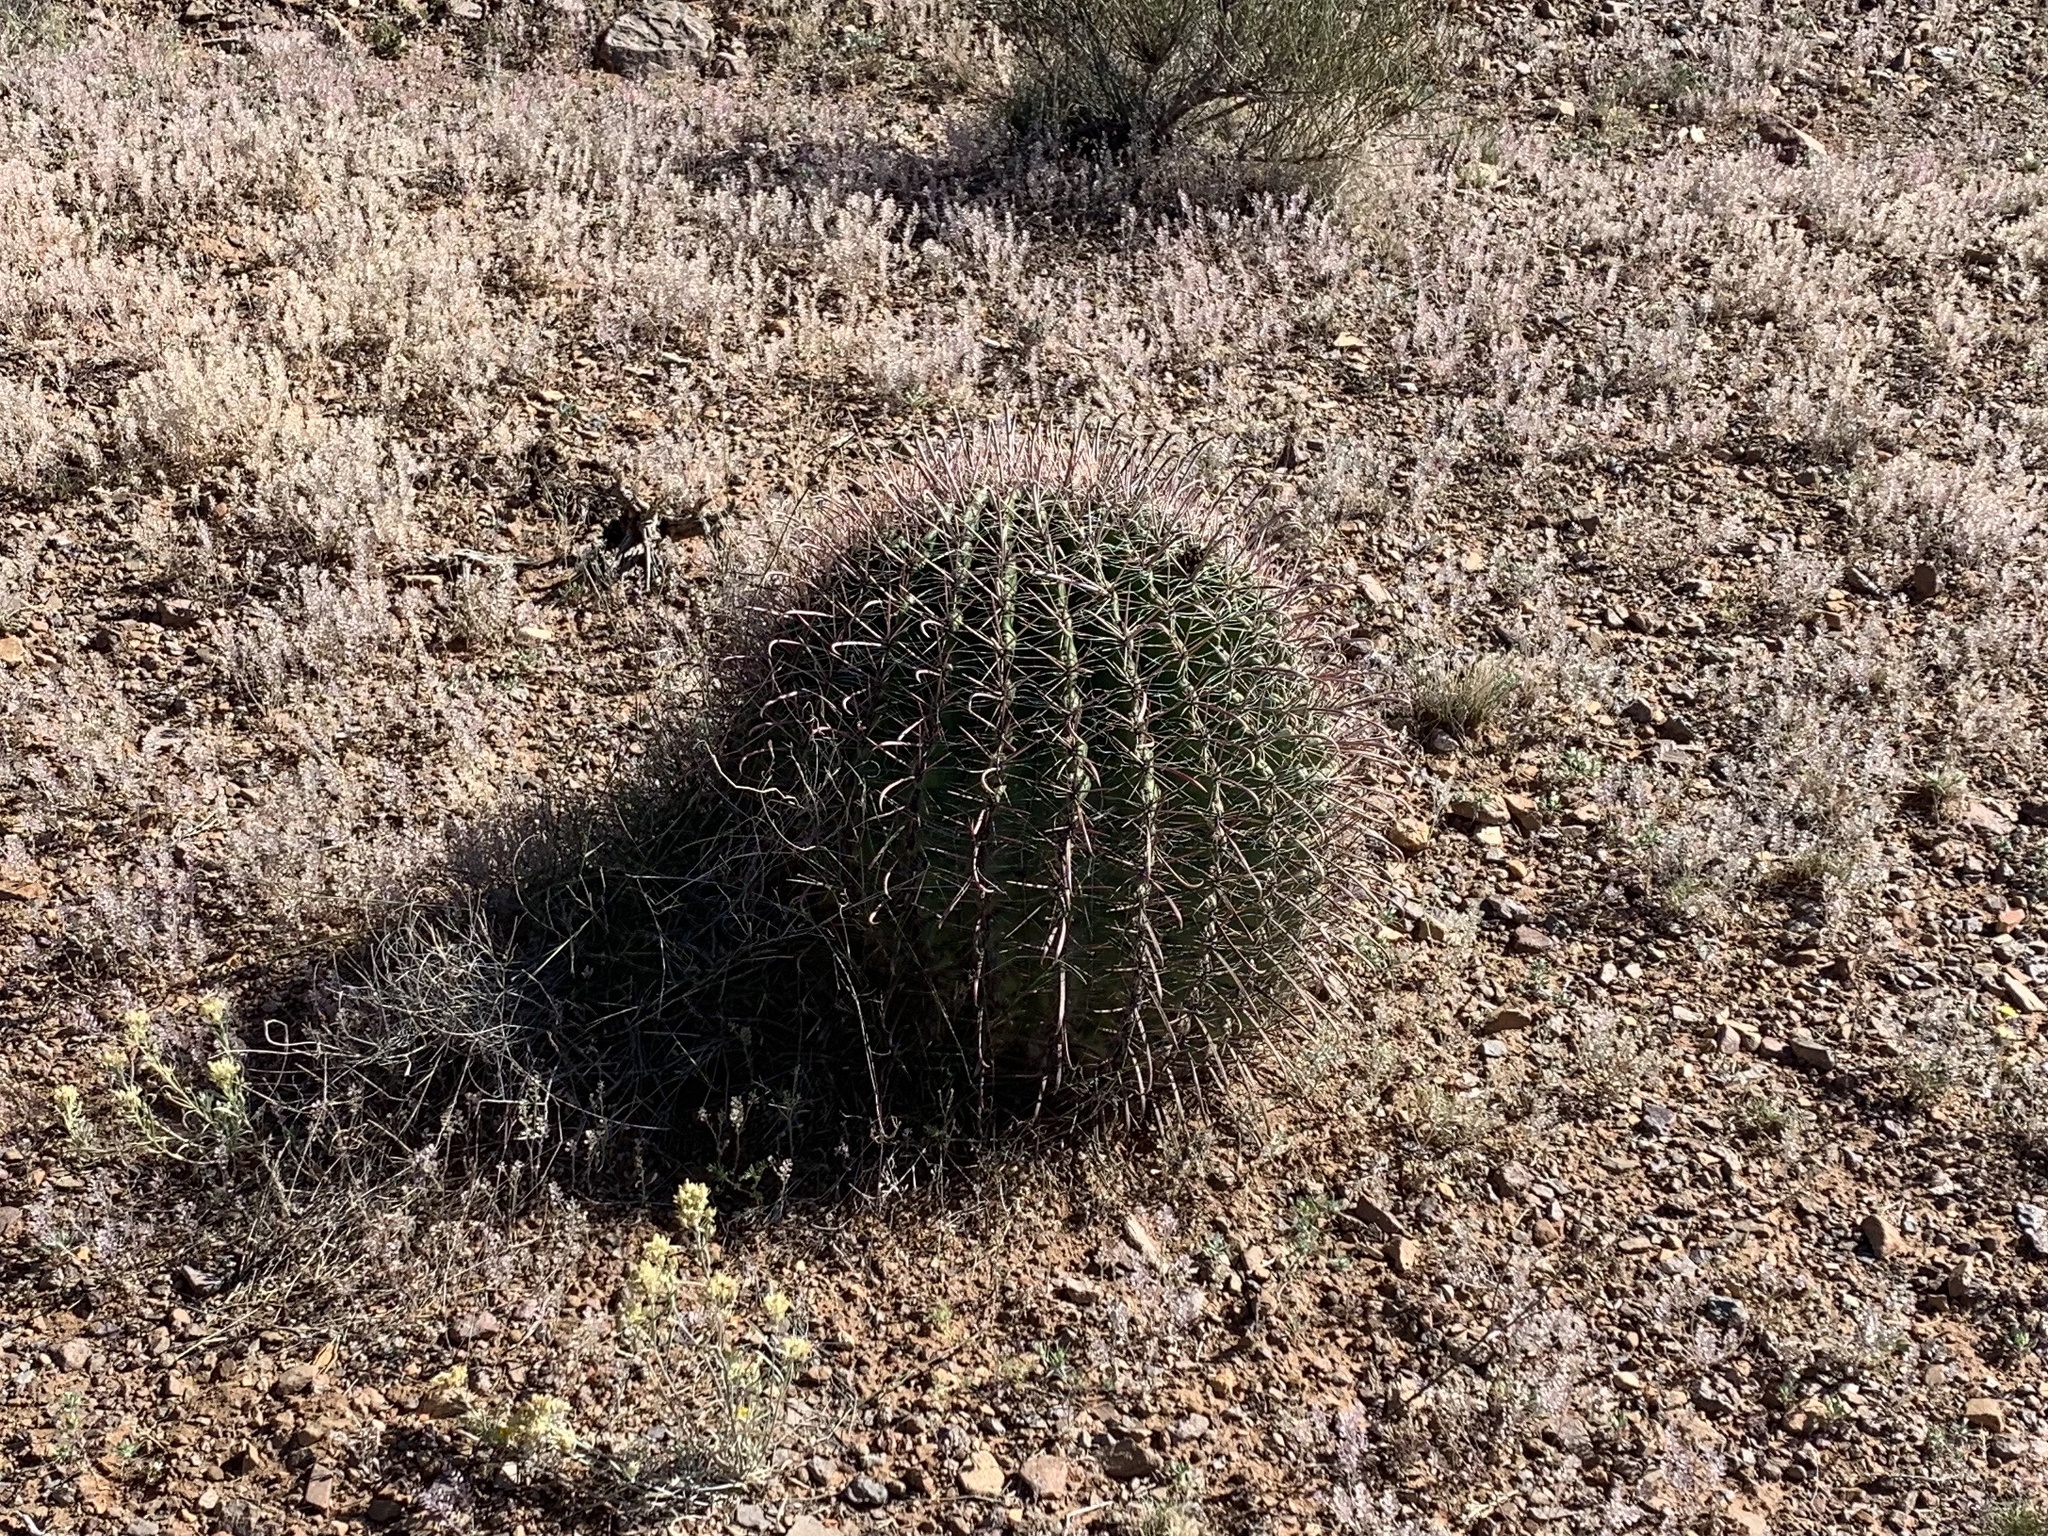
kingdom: Plantae
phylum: Tracheophyta
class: Magnoliopsida
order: Caryophyllales
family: Cactaceae
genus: Ferocactus
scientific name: Ferocactus wislizeni
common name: Candy barrel cactus
